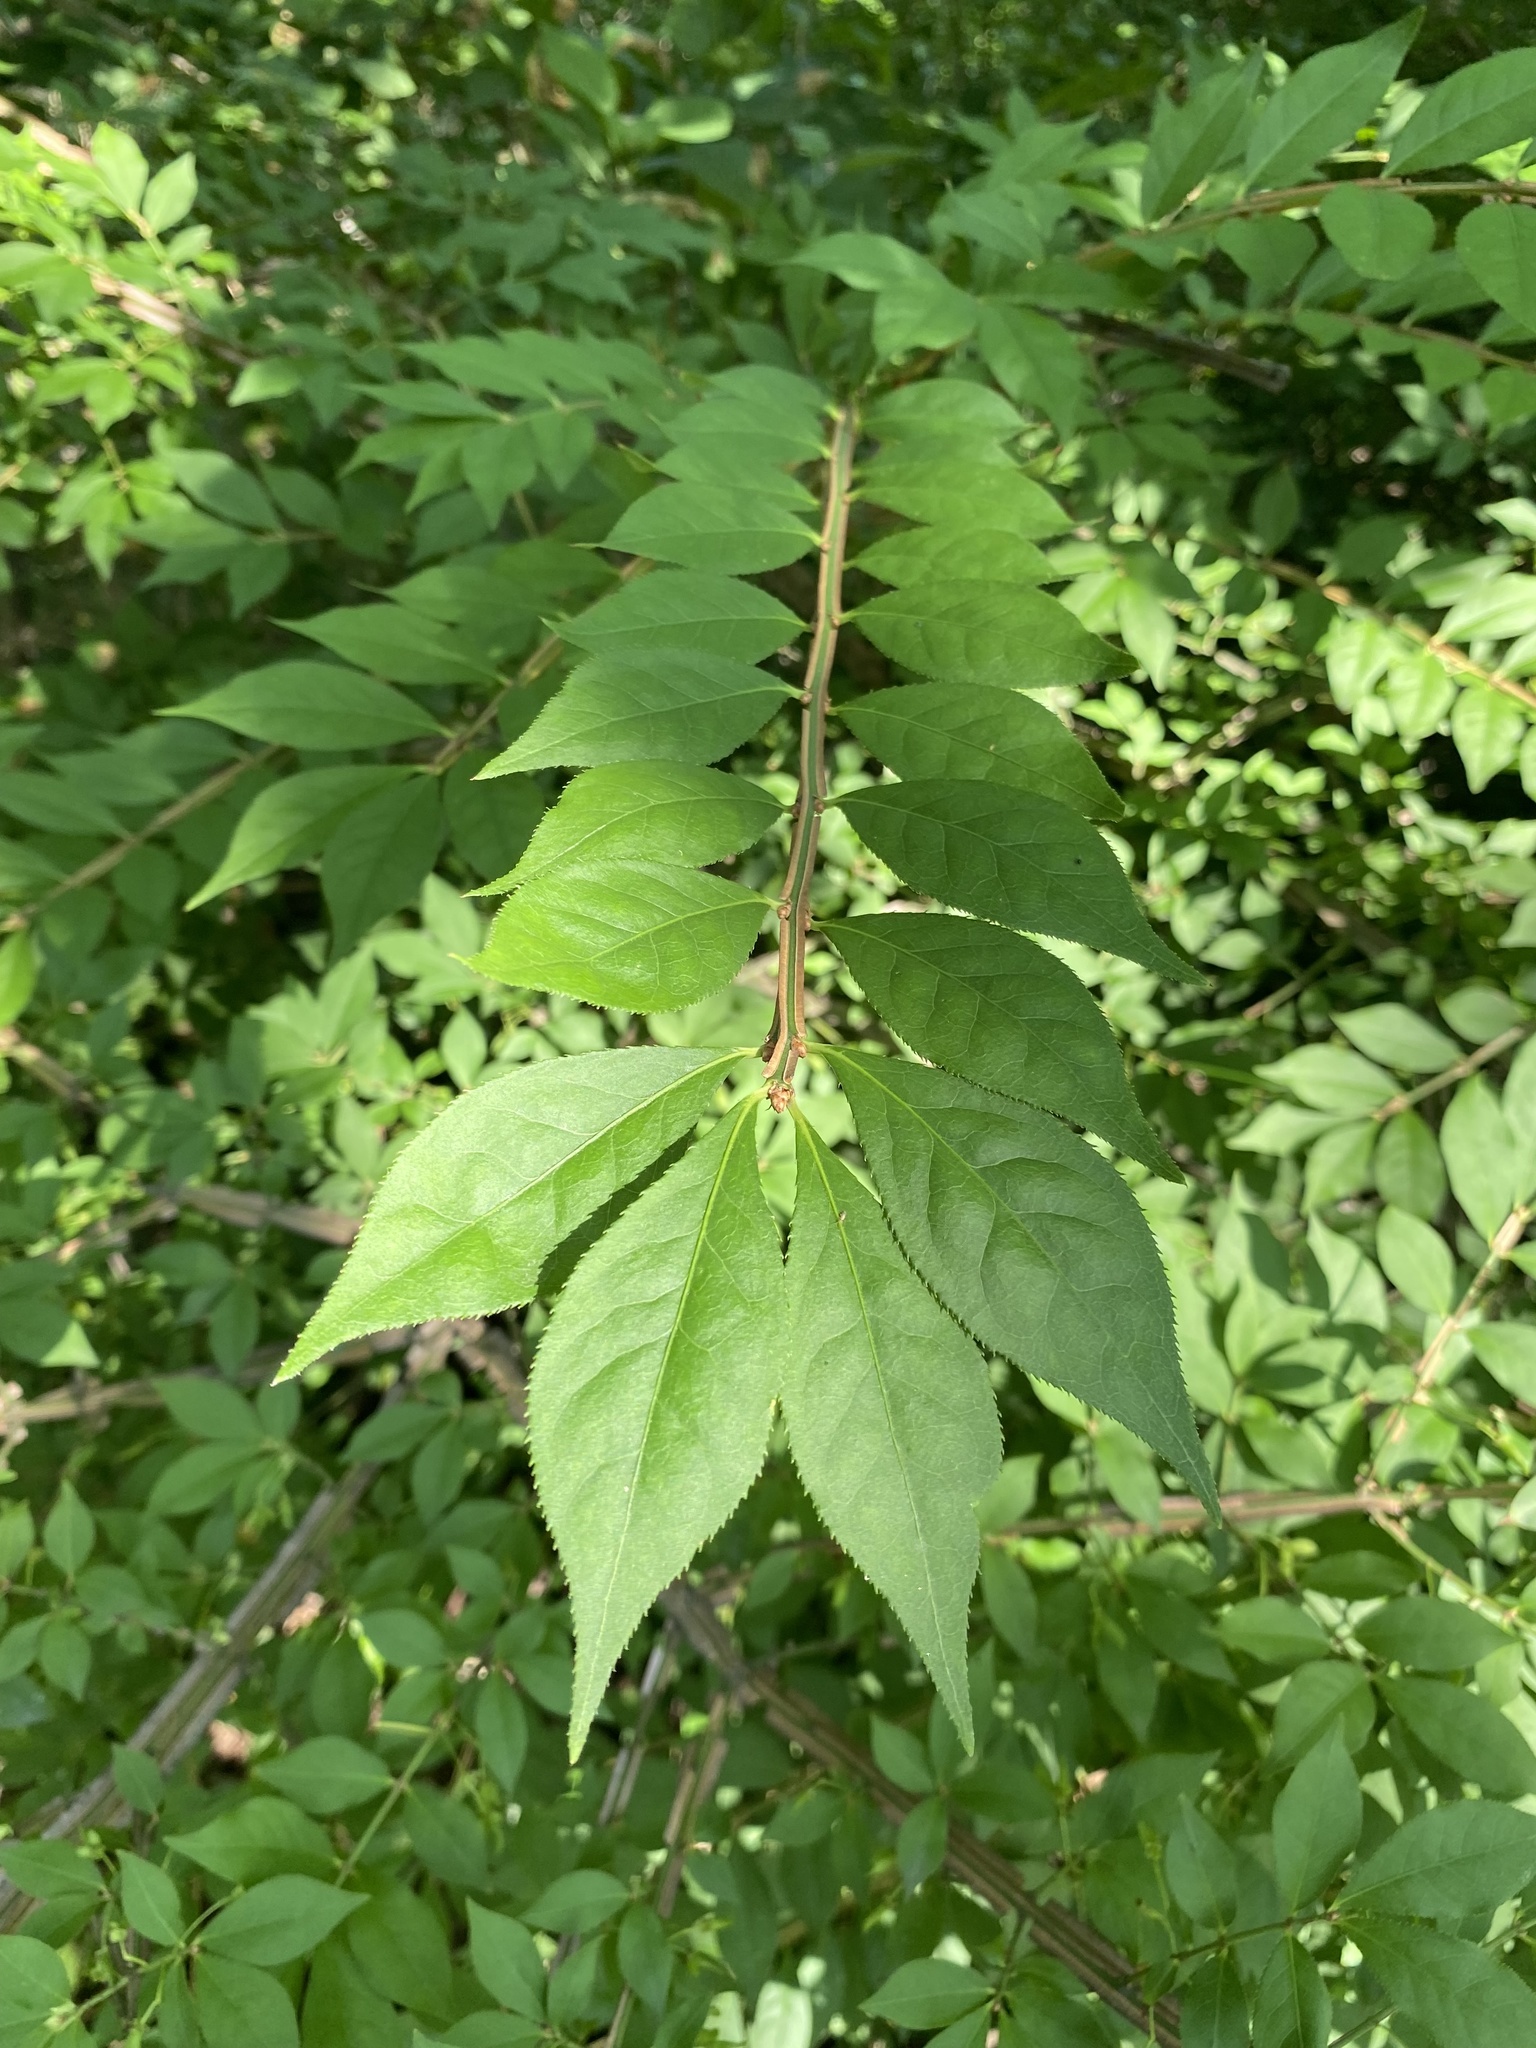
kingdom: Plantae
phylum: Tracheophyta
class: Magnoliopsida
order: Celastrales
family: Celastraceae
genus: Euonymus
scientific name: Euonymus alatus
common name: Winged euonymus
